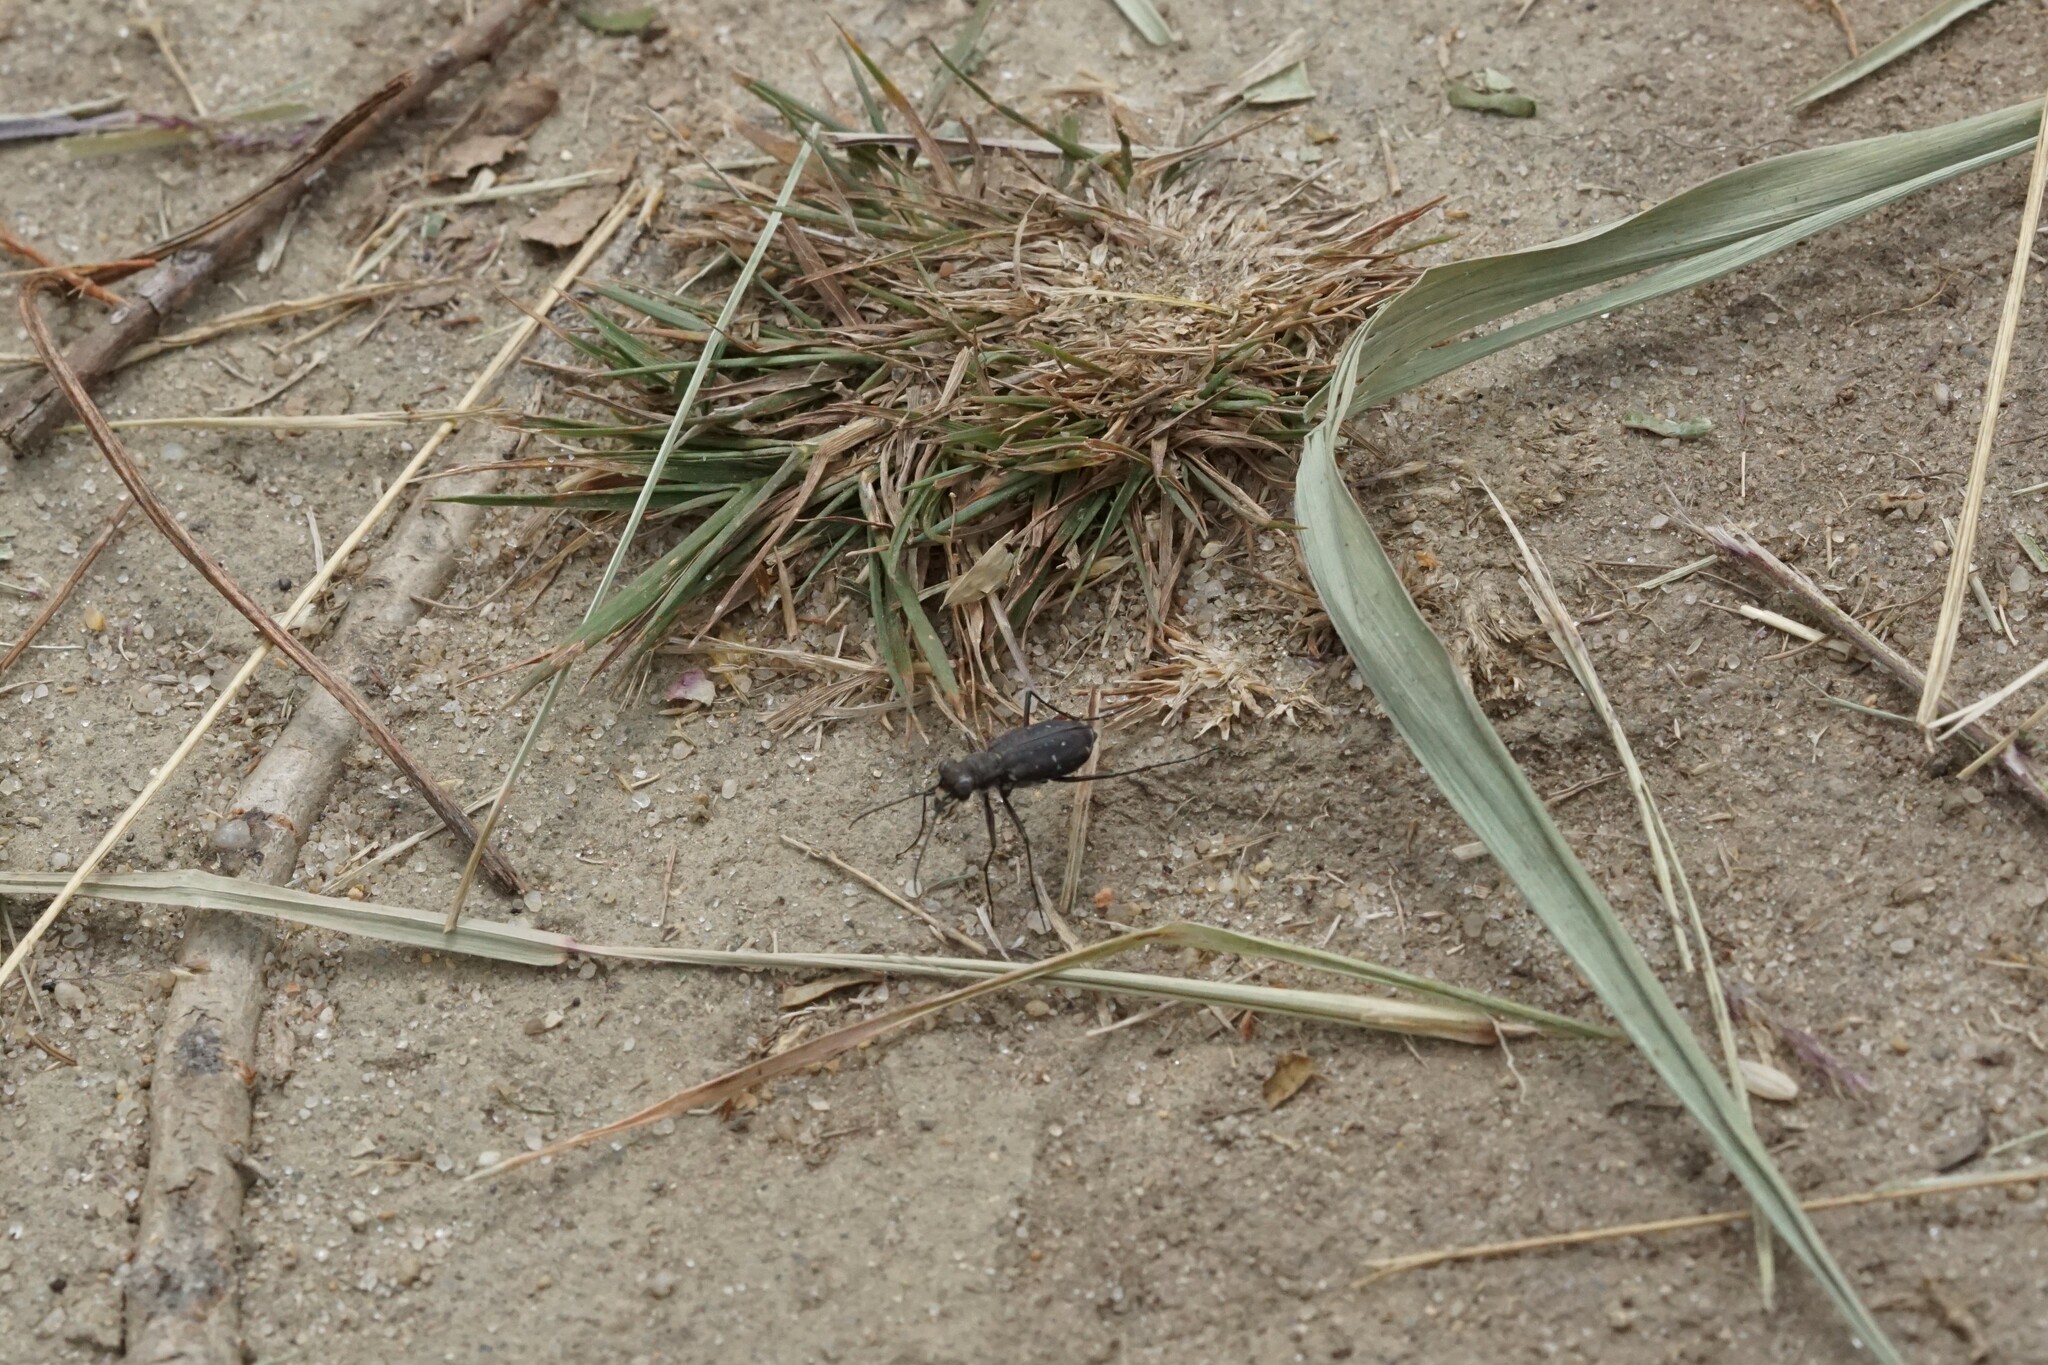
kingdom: Animalia
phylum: Arthropoda
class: Insecta
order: Coleoptera
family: Carabidae
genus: Cicindela
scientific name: Cicindela punctulata
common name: Punctured tiger beetle
